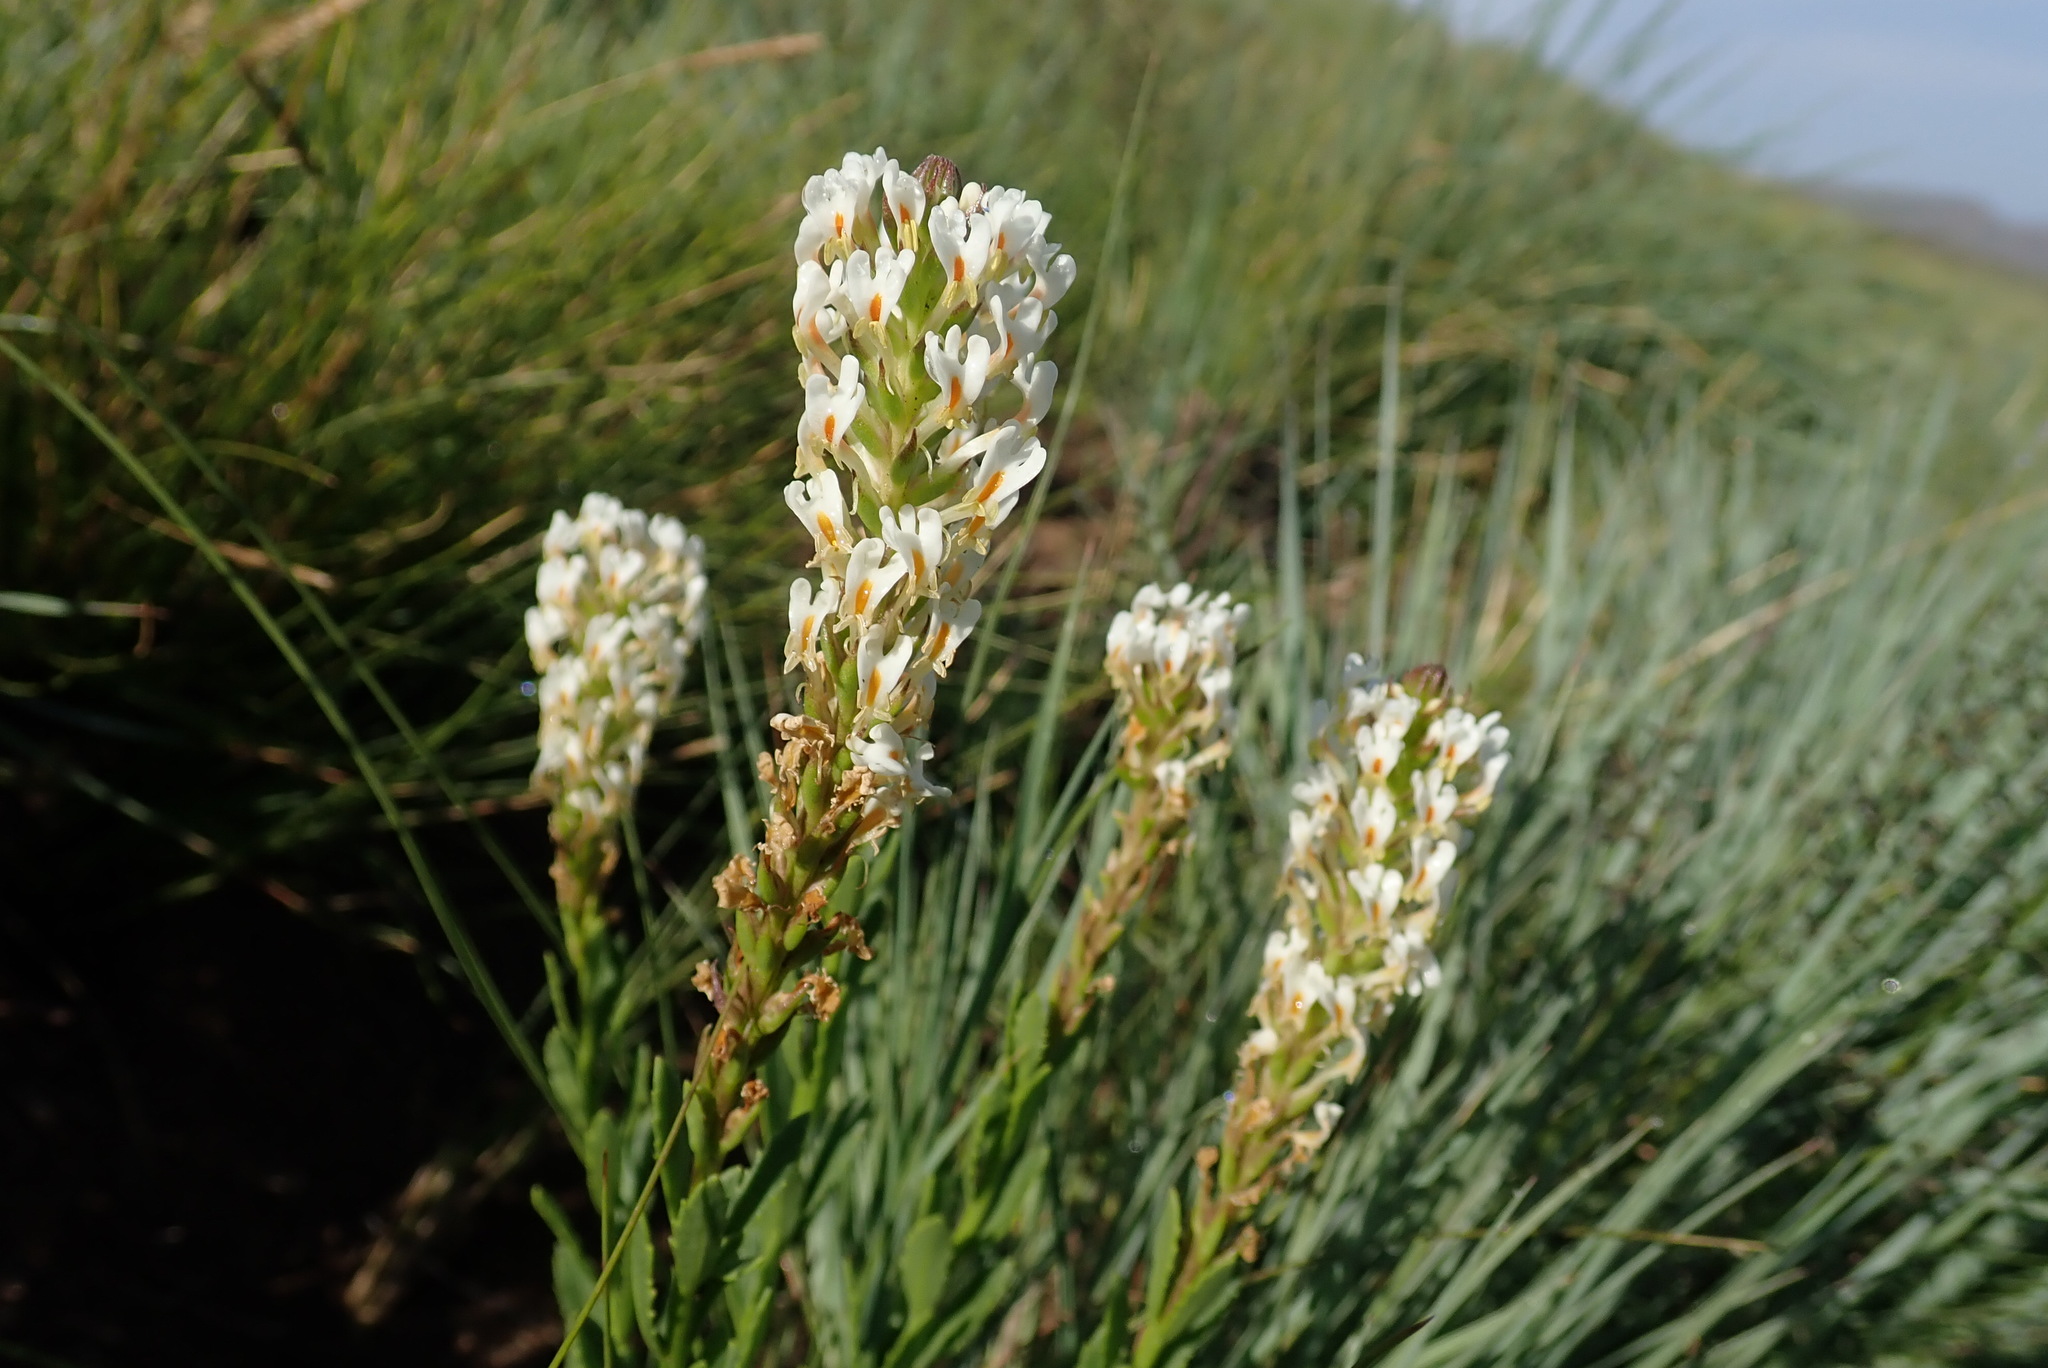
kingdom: Plantae
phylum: Tracheophyta
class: Magnoliopsida
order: Lamiales
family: Scrophulariaceae
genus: Hebenstretia
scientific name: Hebenstretia comosa
